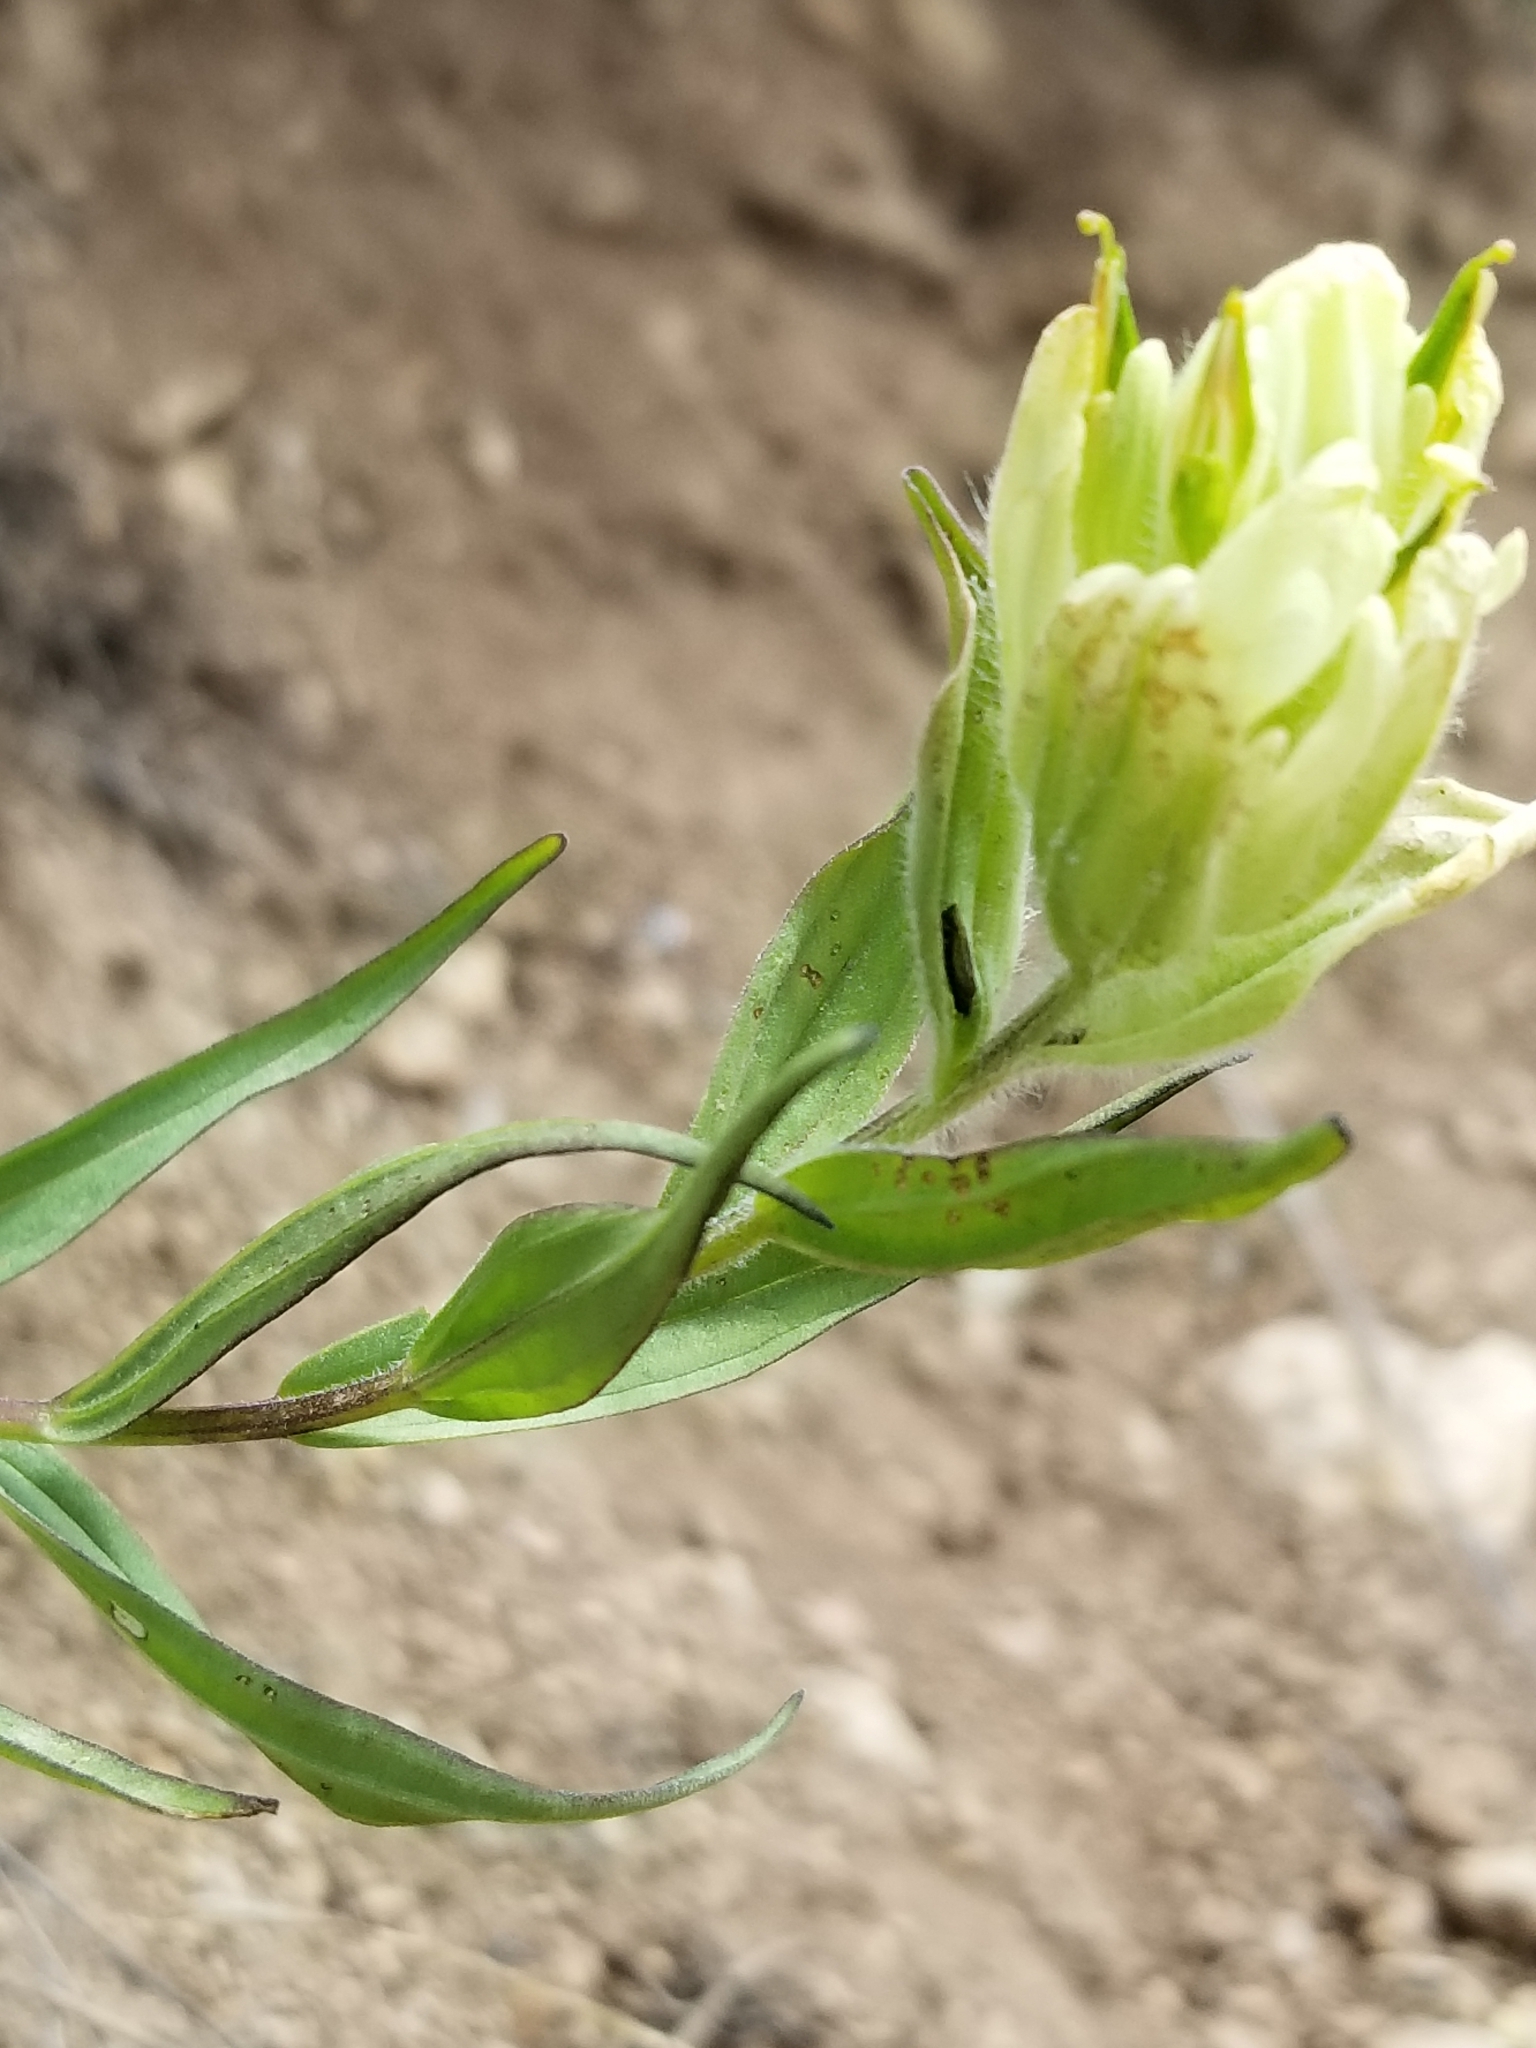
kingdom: Plantae
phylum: Tracheophyta
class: Magnoliopsida
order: Lamiales
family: Orobanchaceae
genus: Castilleja
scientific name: Castilleja occidentalis
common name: Western paintbrush
